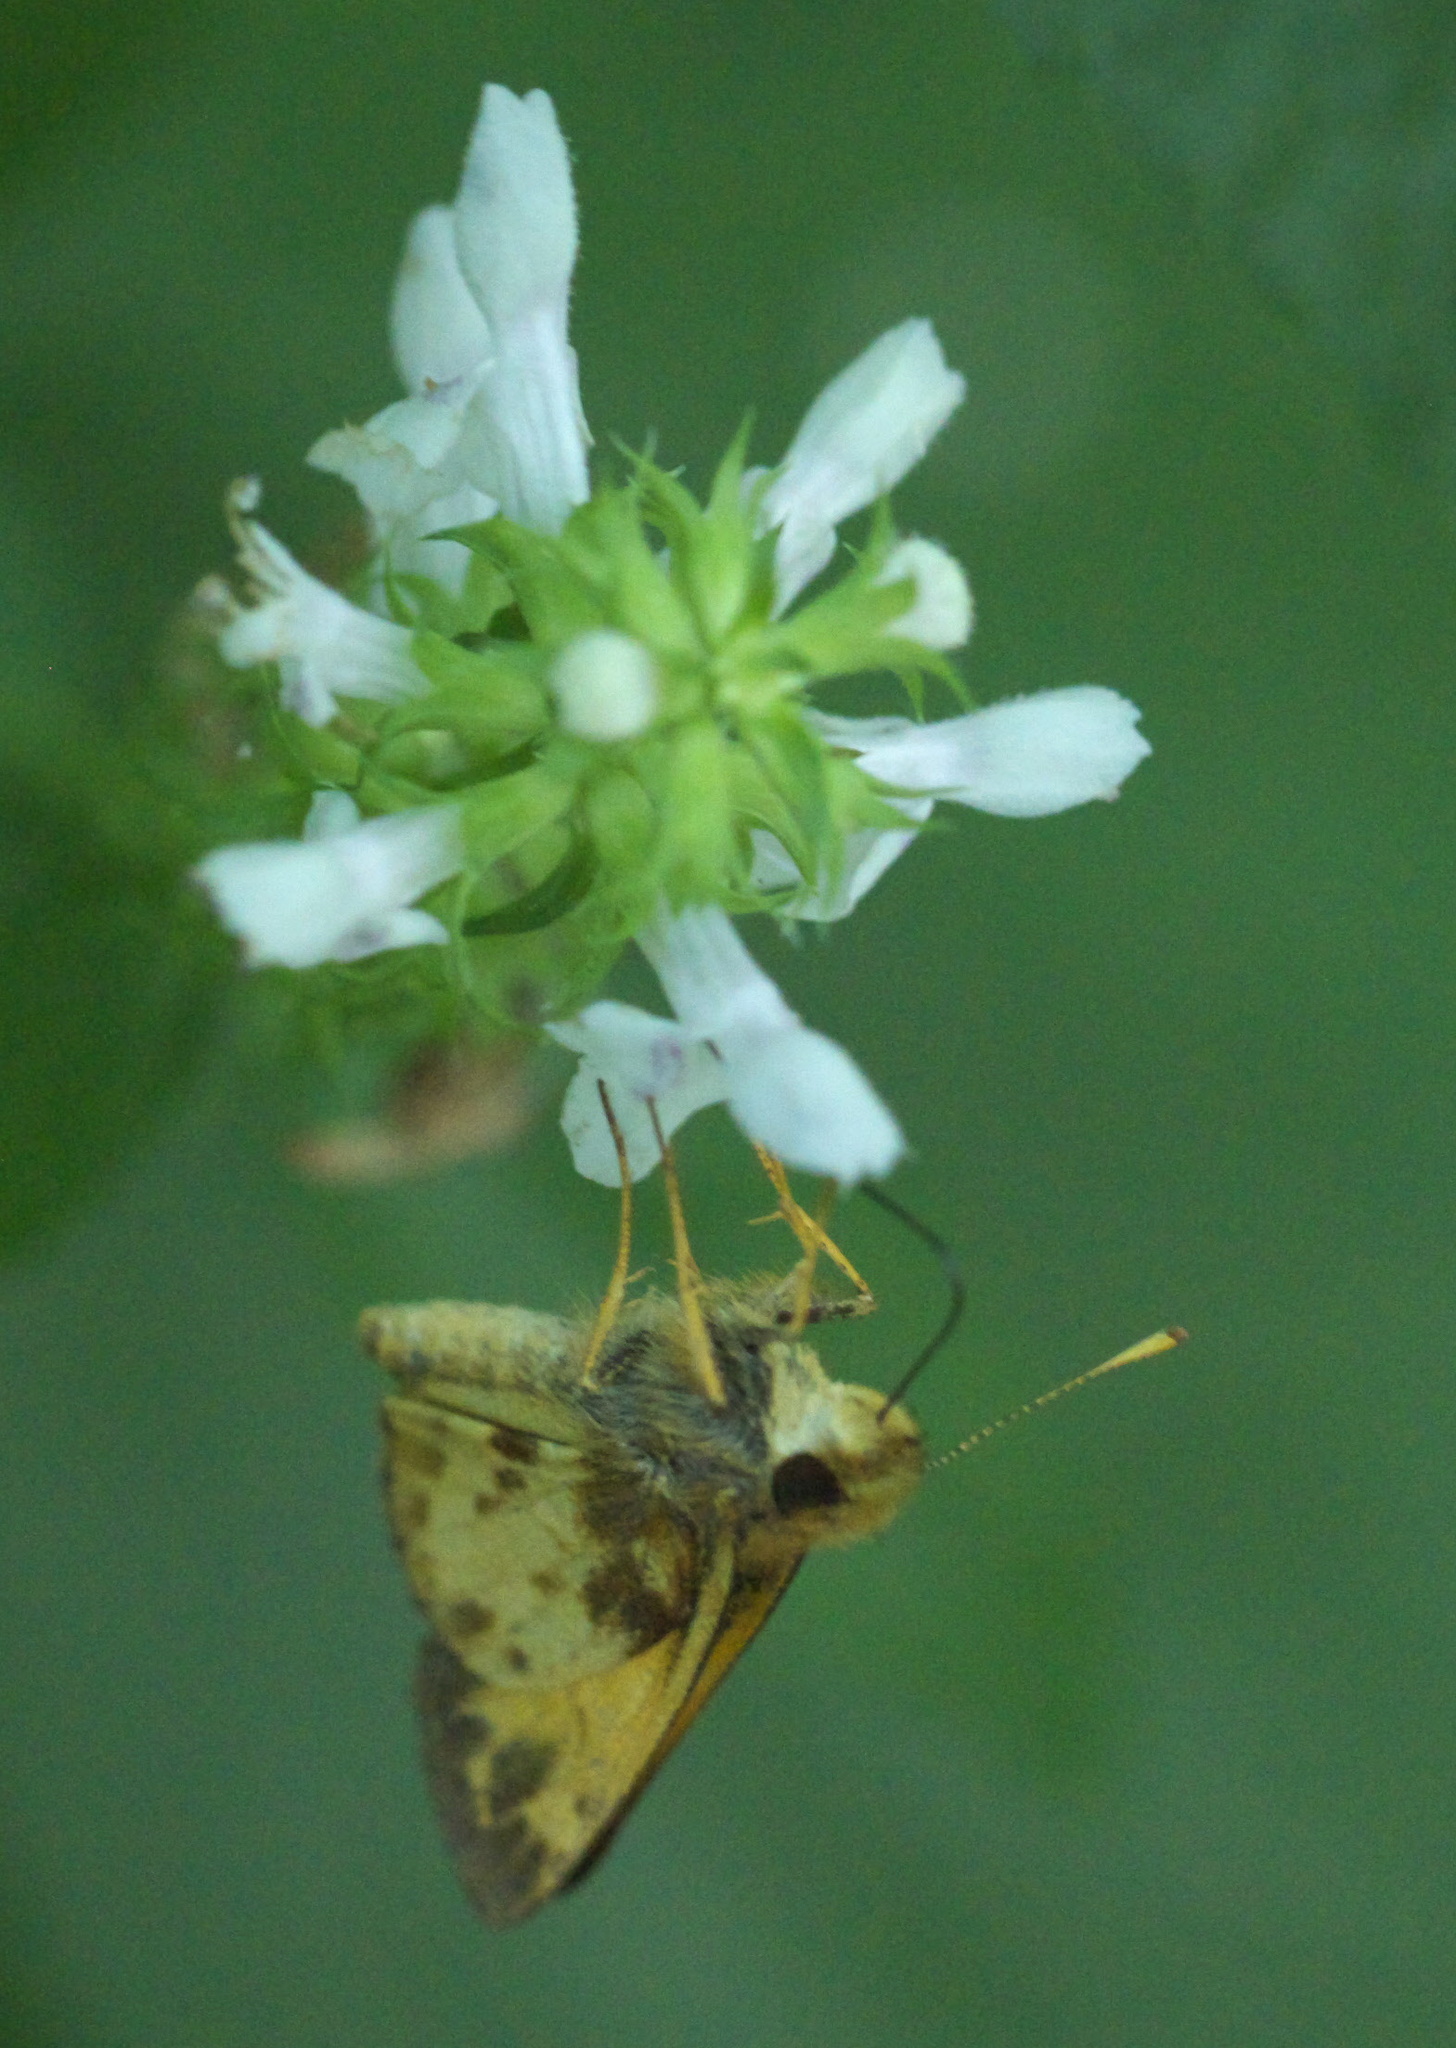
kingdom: Animalia
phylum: Arthropoda
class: Insecta
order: Lepidoptera
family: Hesperiidae
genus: Lon
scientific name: Lon zabulon
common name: Zabulon skipper
